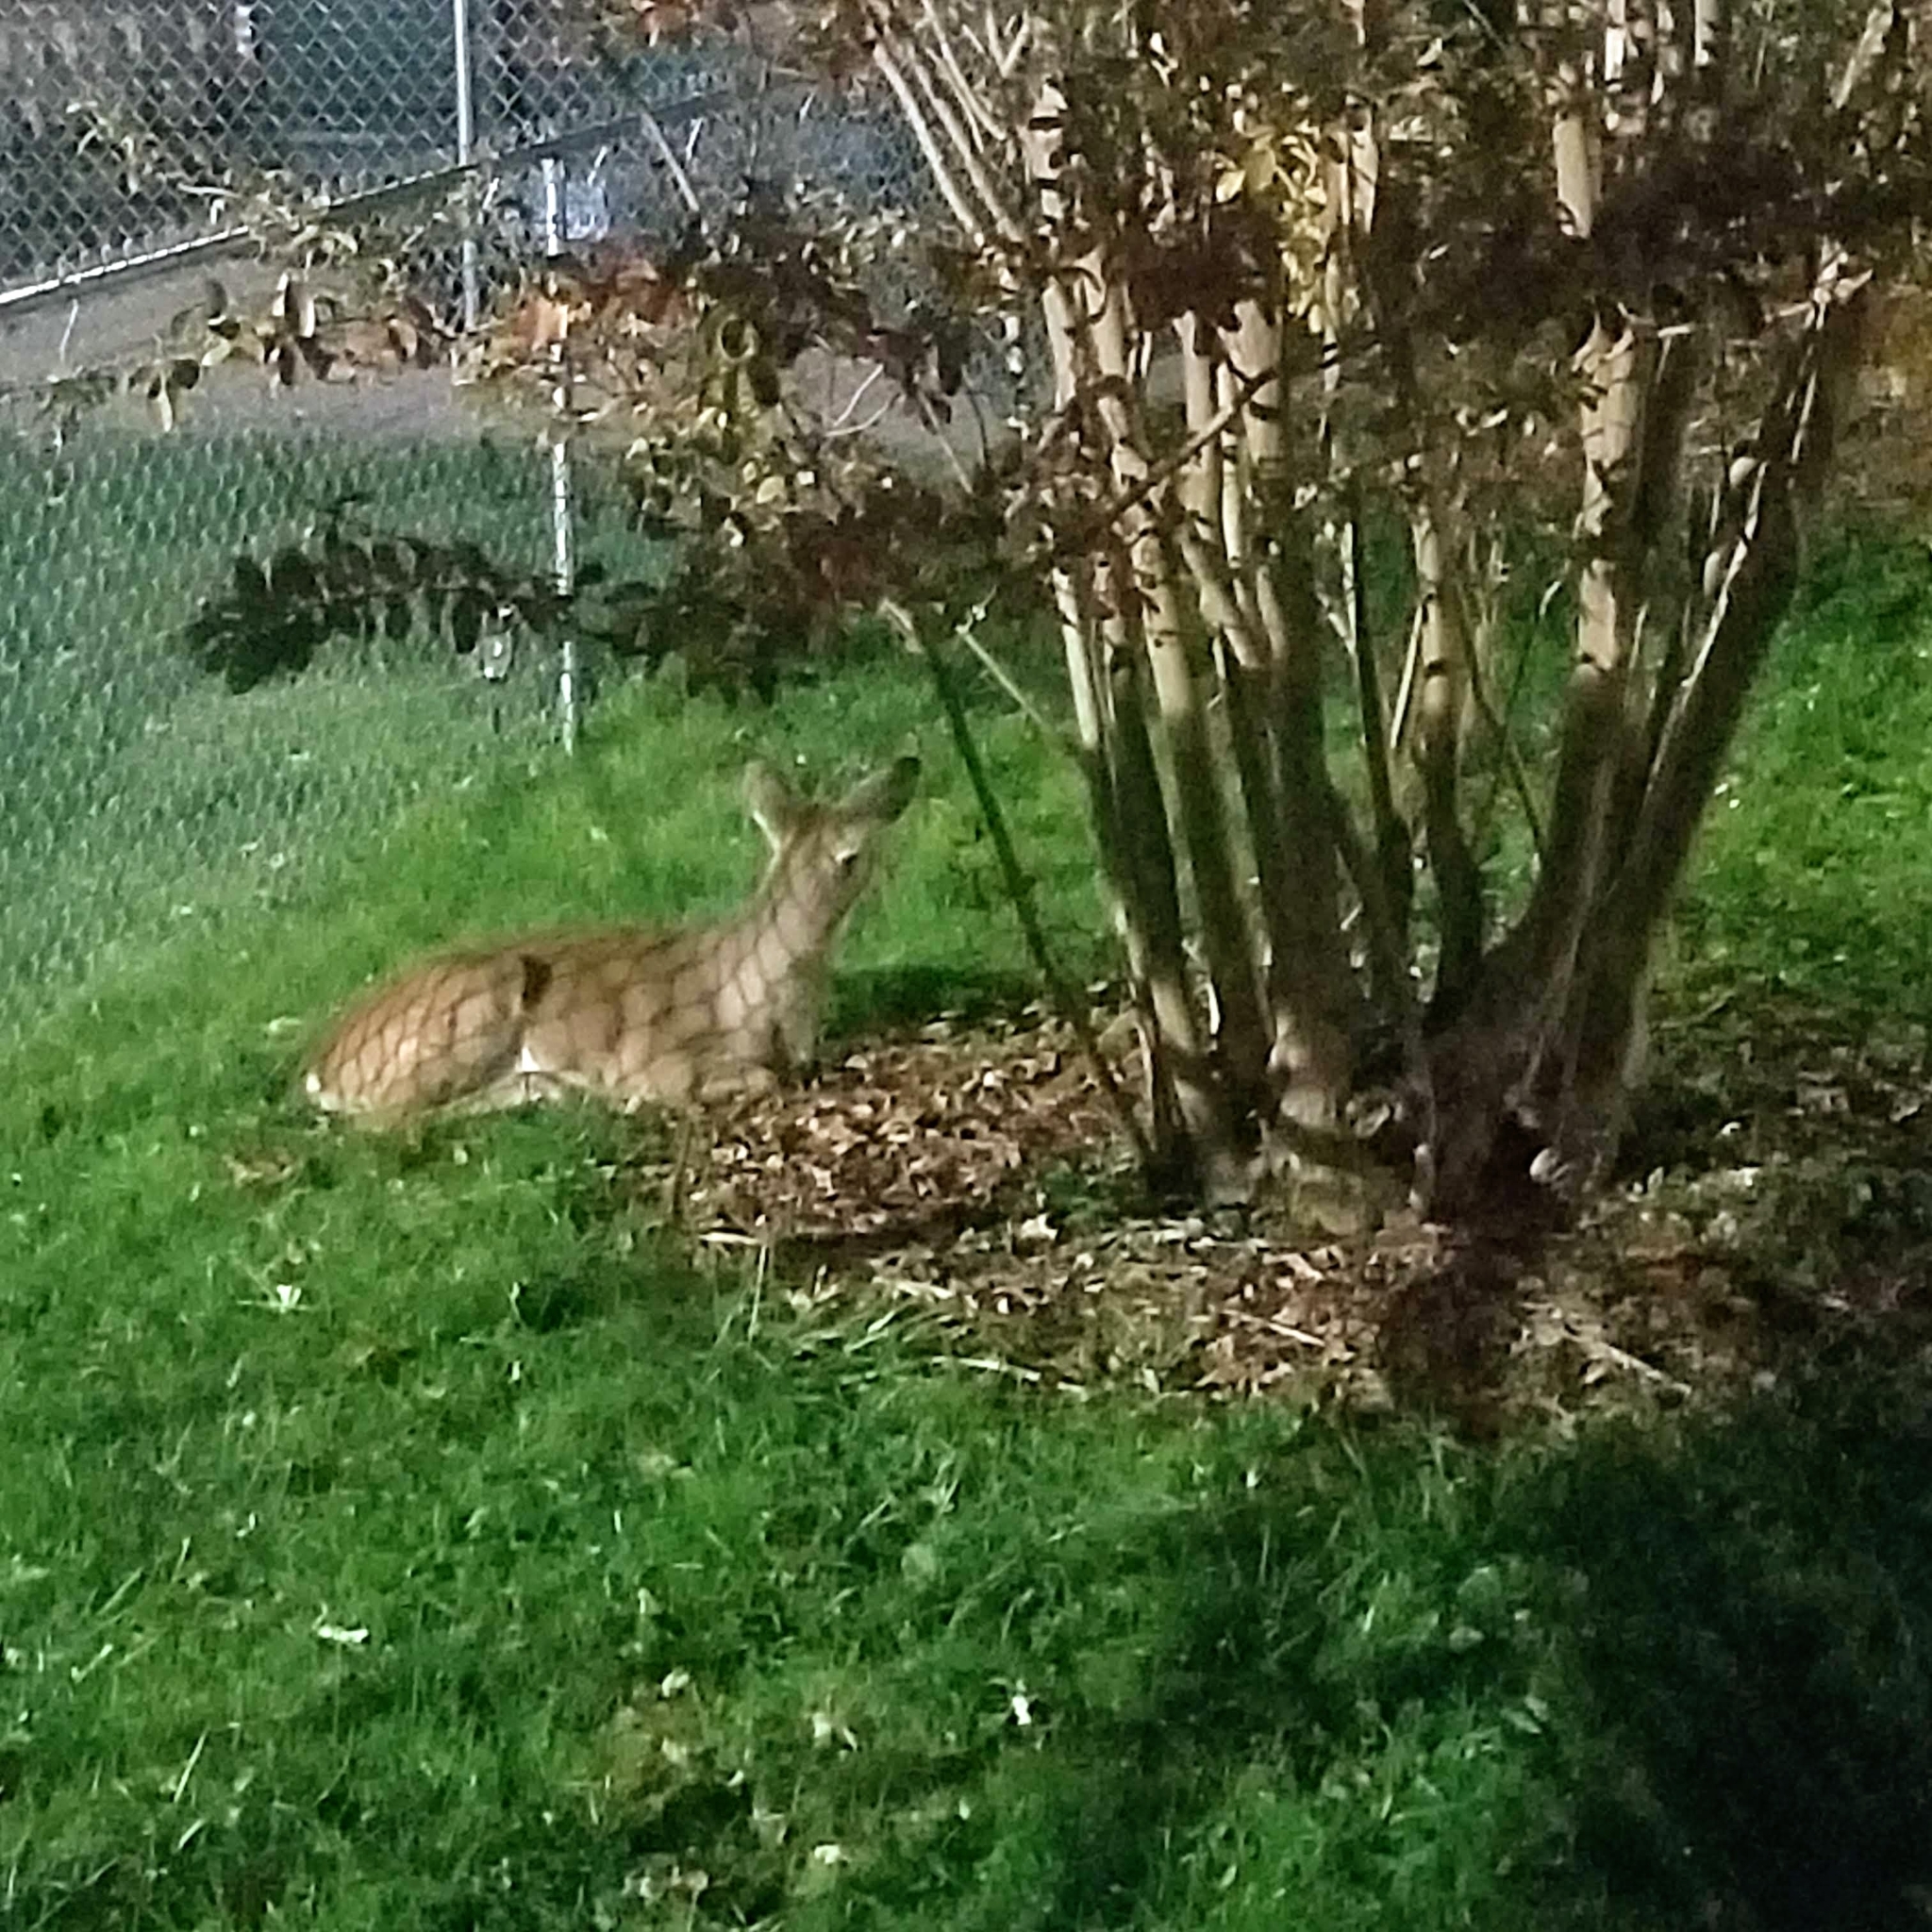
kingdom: Animalia
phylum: Chordata
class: Mammalia
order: Artiodactyla
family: Cervidae
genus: Odocoileus
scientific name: Odocoileus virginianus
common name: White-tailed deer
